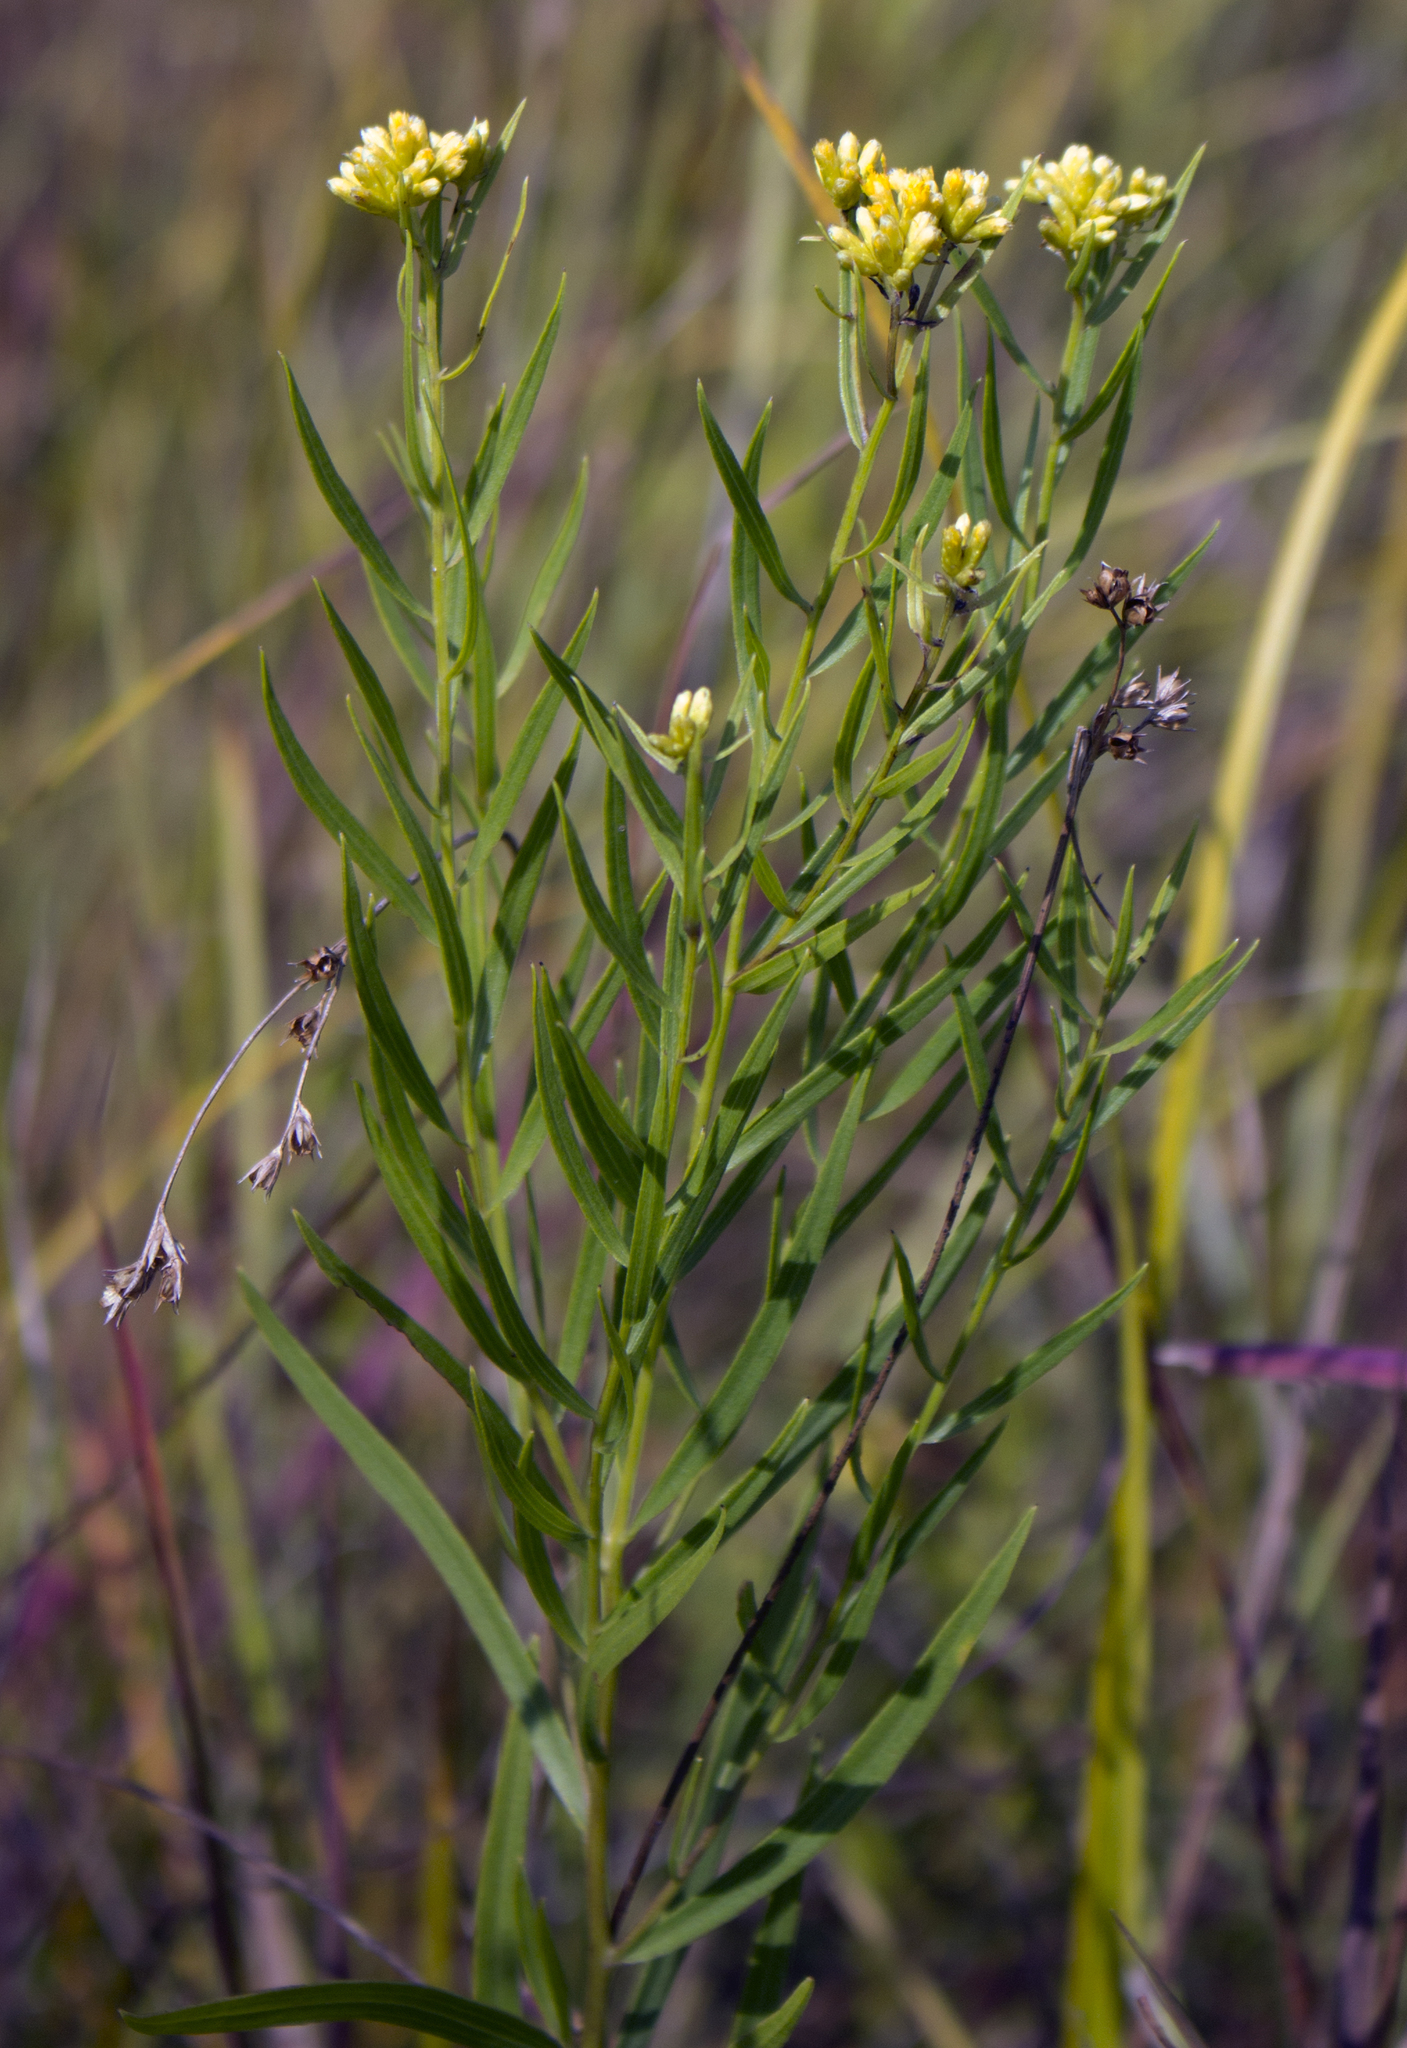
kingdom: Plantae
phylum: Tracheophyta
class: Magnoliopsida
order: Asterales
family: Asteraceae
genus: Euthamia
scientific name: Euthamia graminifolia
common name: Common goldentop
